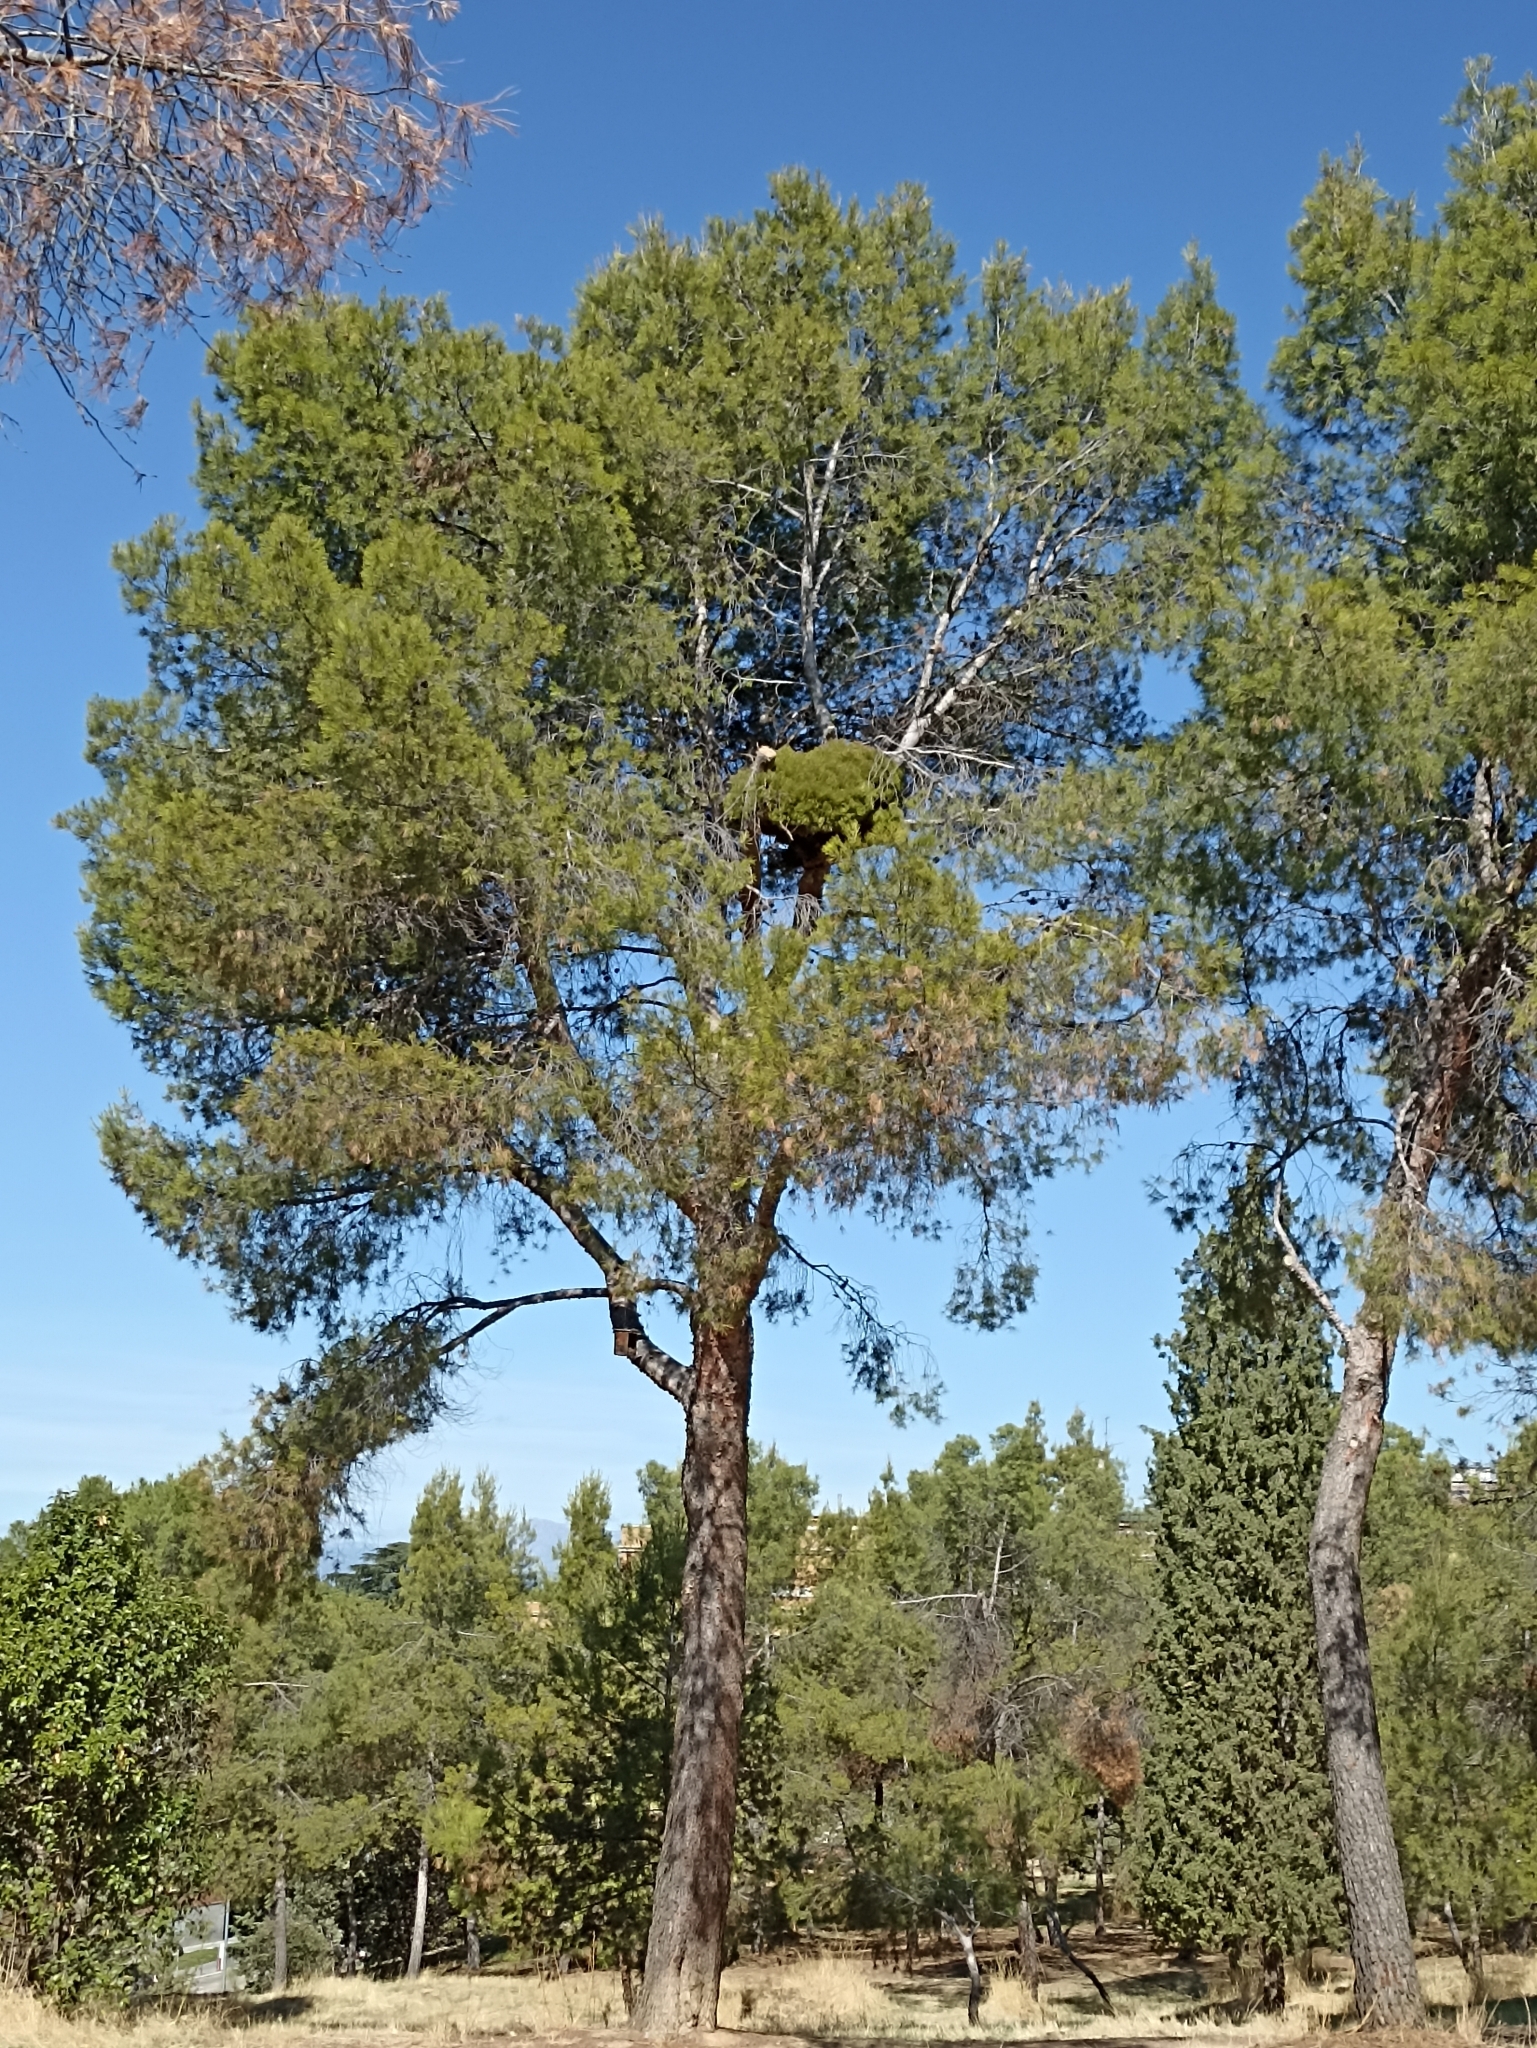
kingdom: Bacteria
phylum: Firmicutes
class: Bacilli
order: Acholeplasmatales
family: Acholeplasmataceae
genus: Phytoplasma
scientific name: Phytoplasma pini
